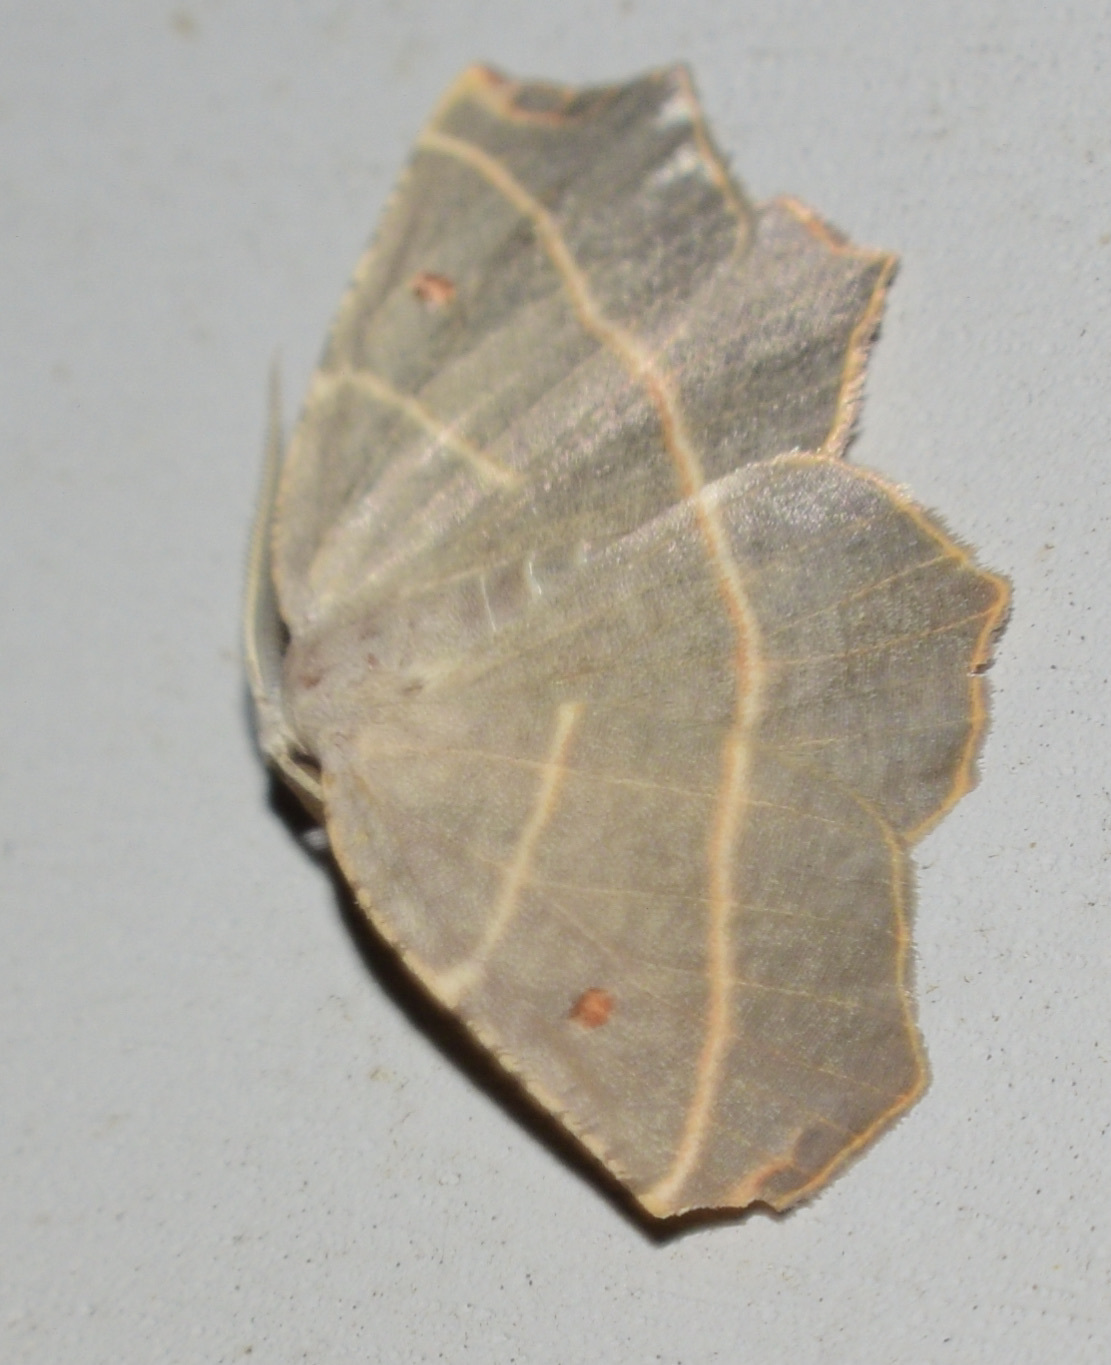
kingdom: Animalia
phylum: Arthropoda
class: Insecta
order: Lepidoptera
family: Geometridae
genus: Metanema
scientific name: Metanema inatomaria
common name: Pale metanema
